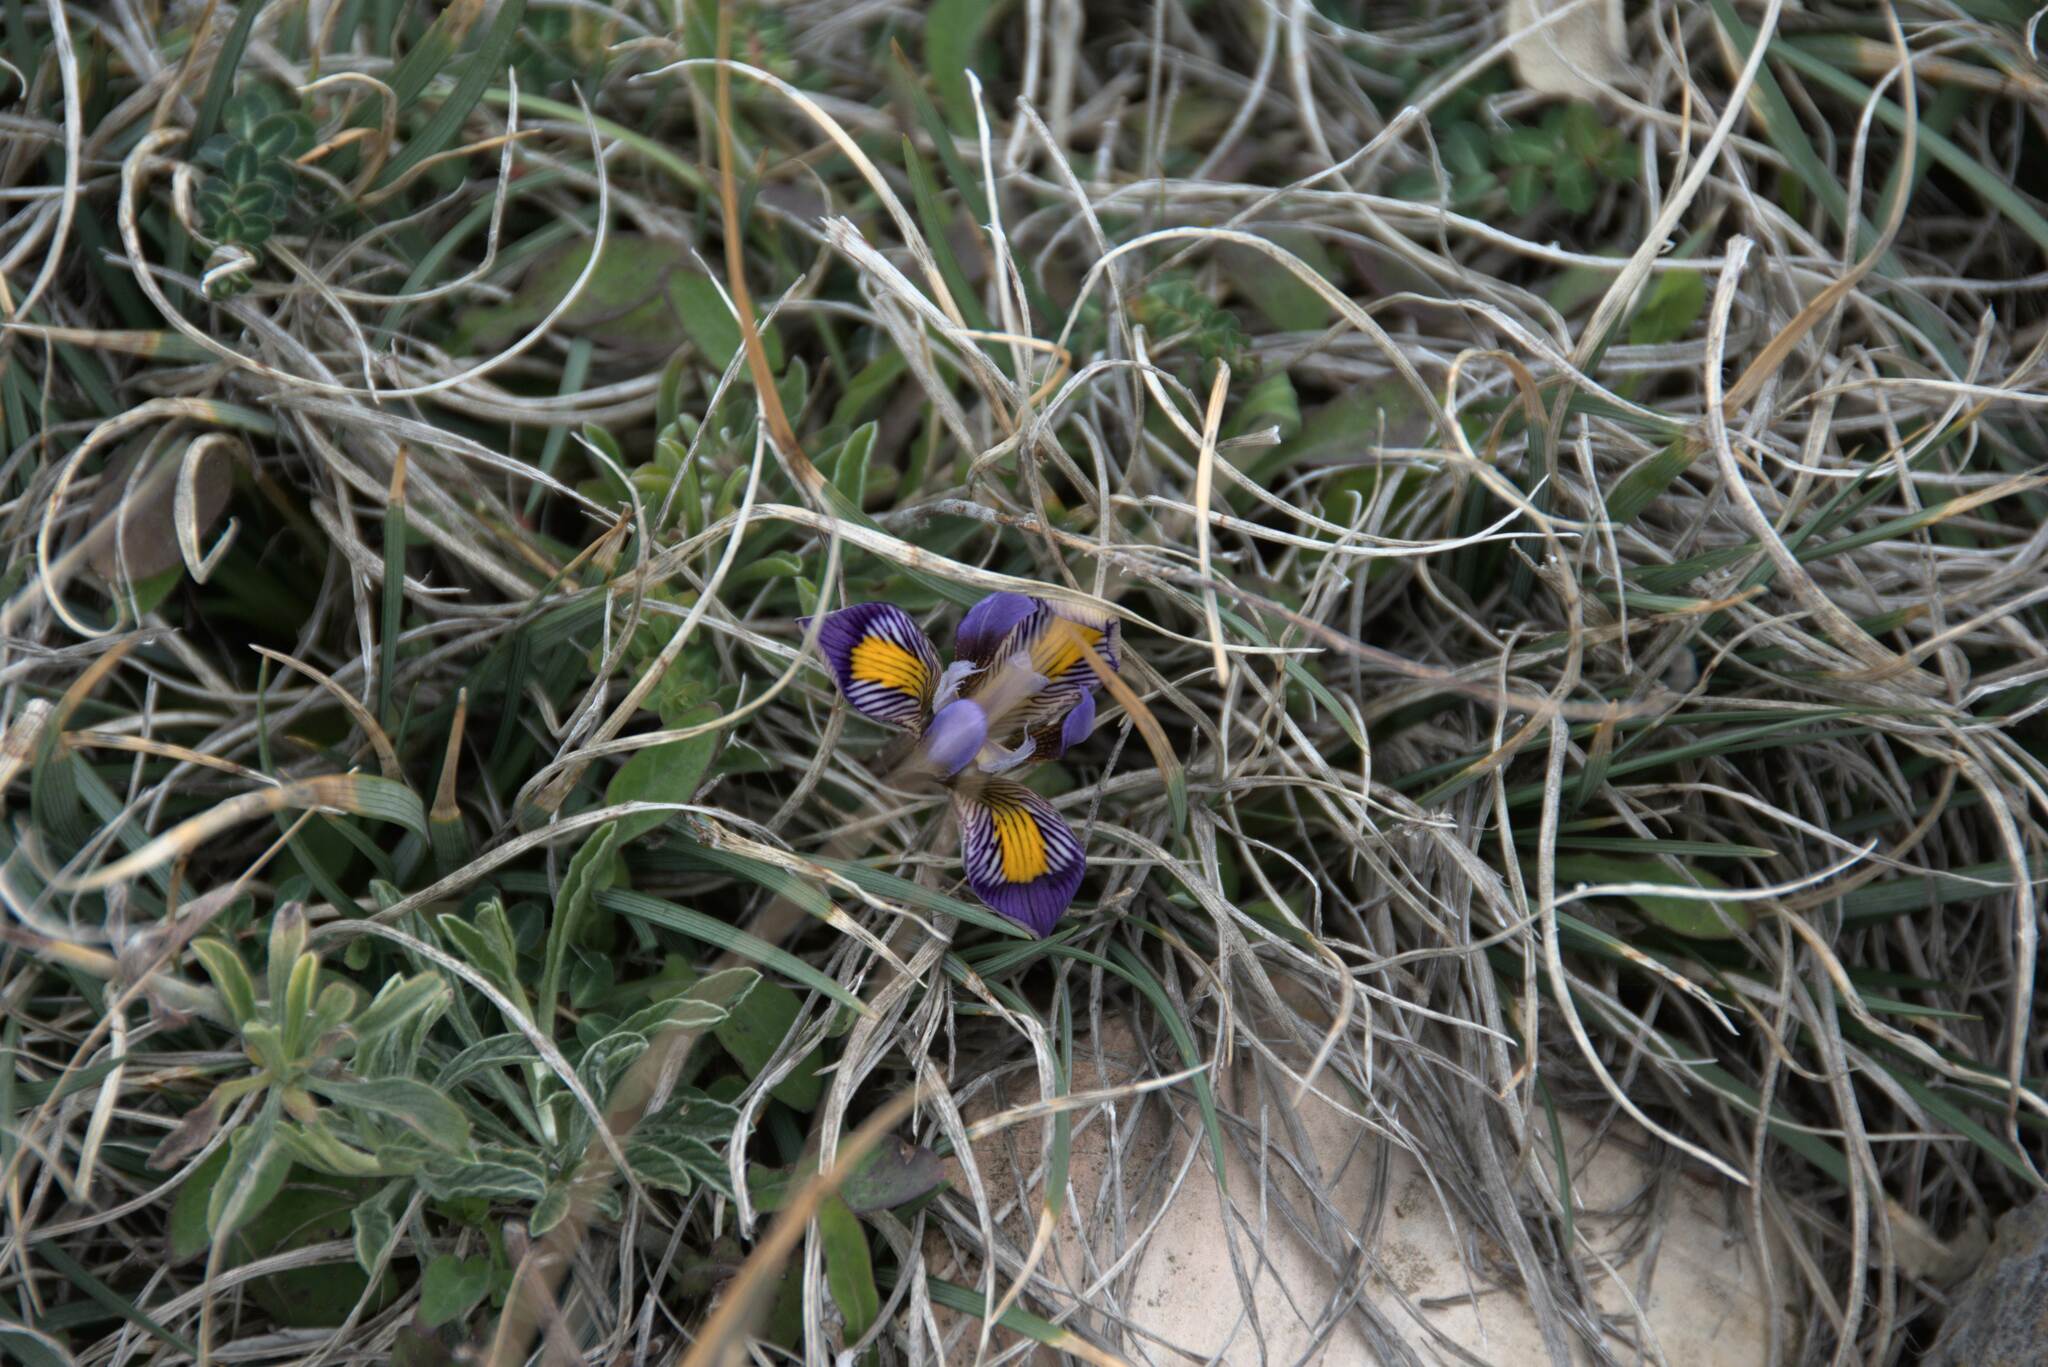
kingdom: Plantae
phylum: Tracheophyta
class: Liliopsida
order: Asparagales
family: Iridaceae
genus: Iris
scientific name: Iris unguicularis
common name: Algerian iris
